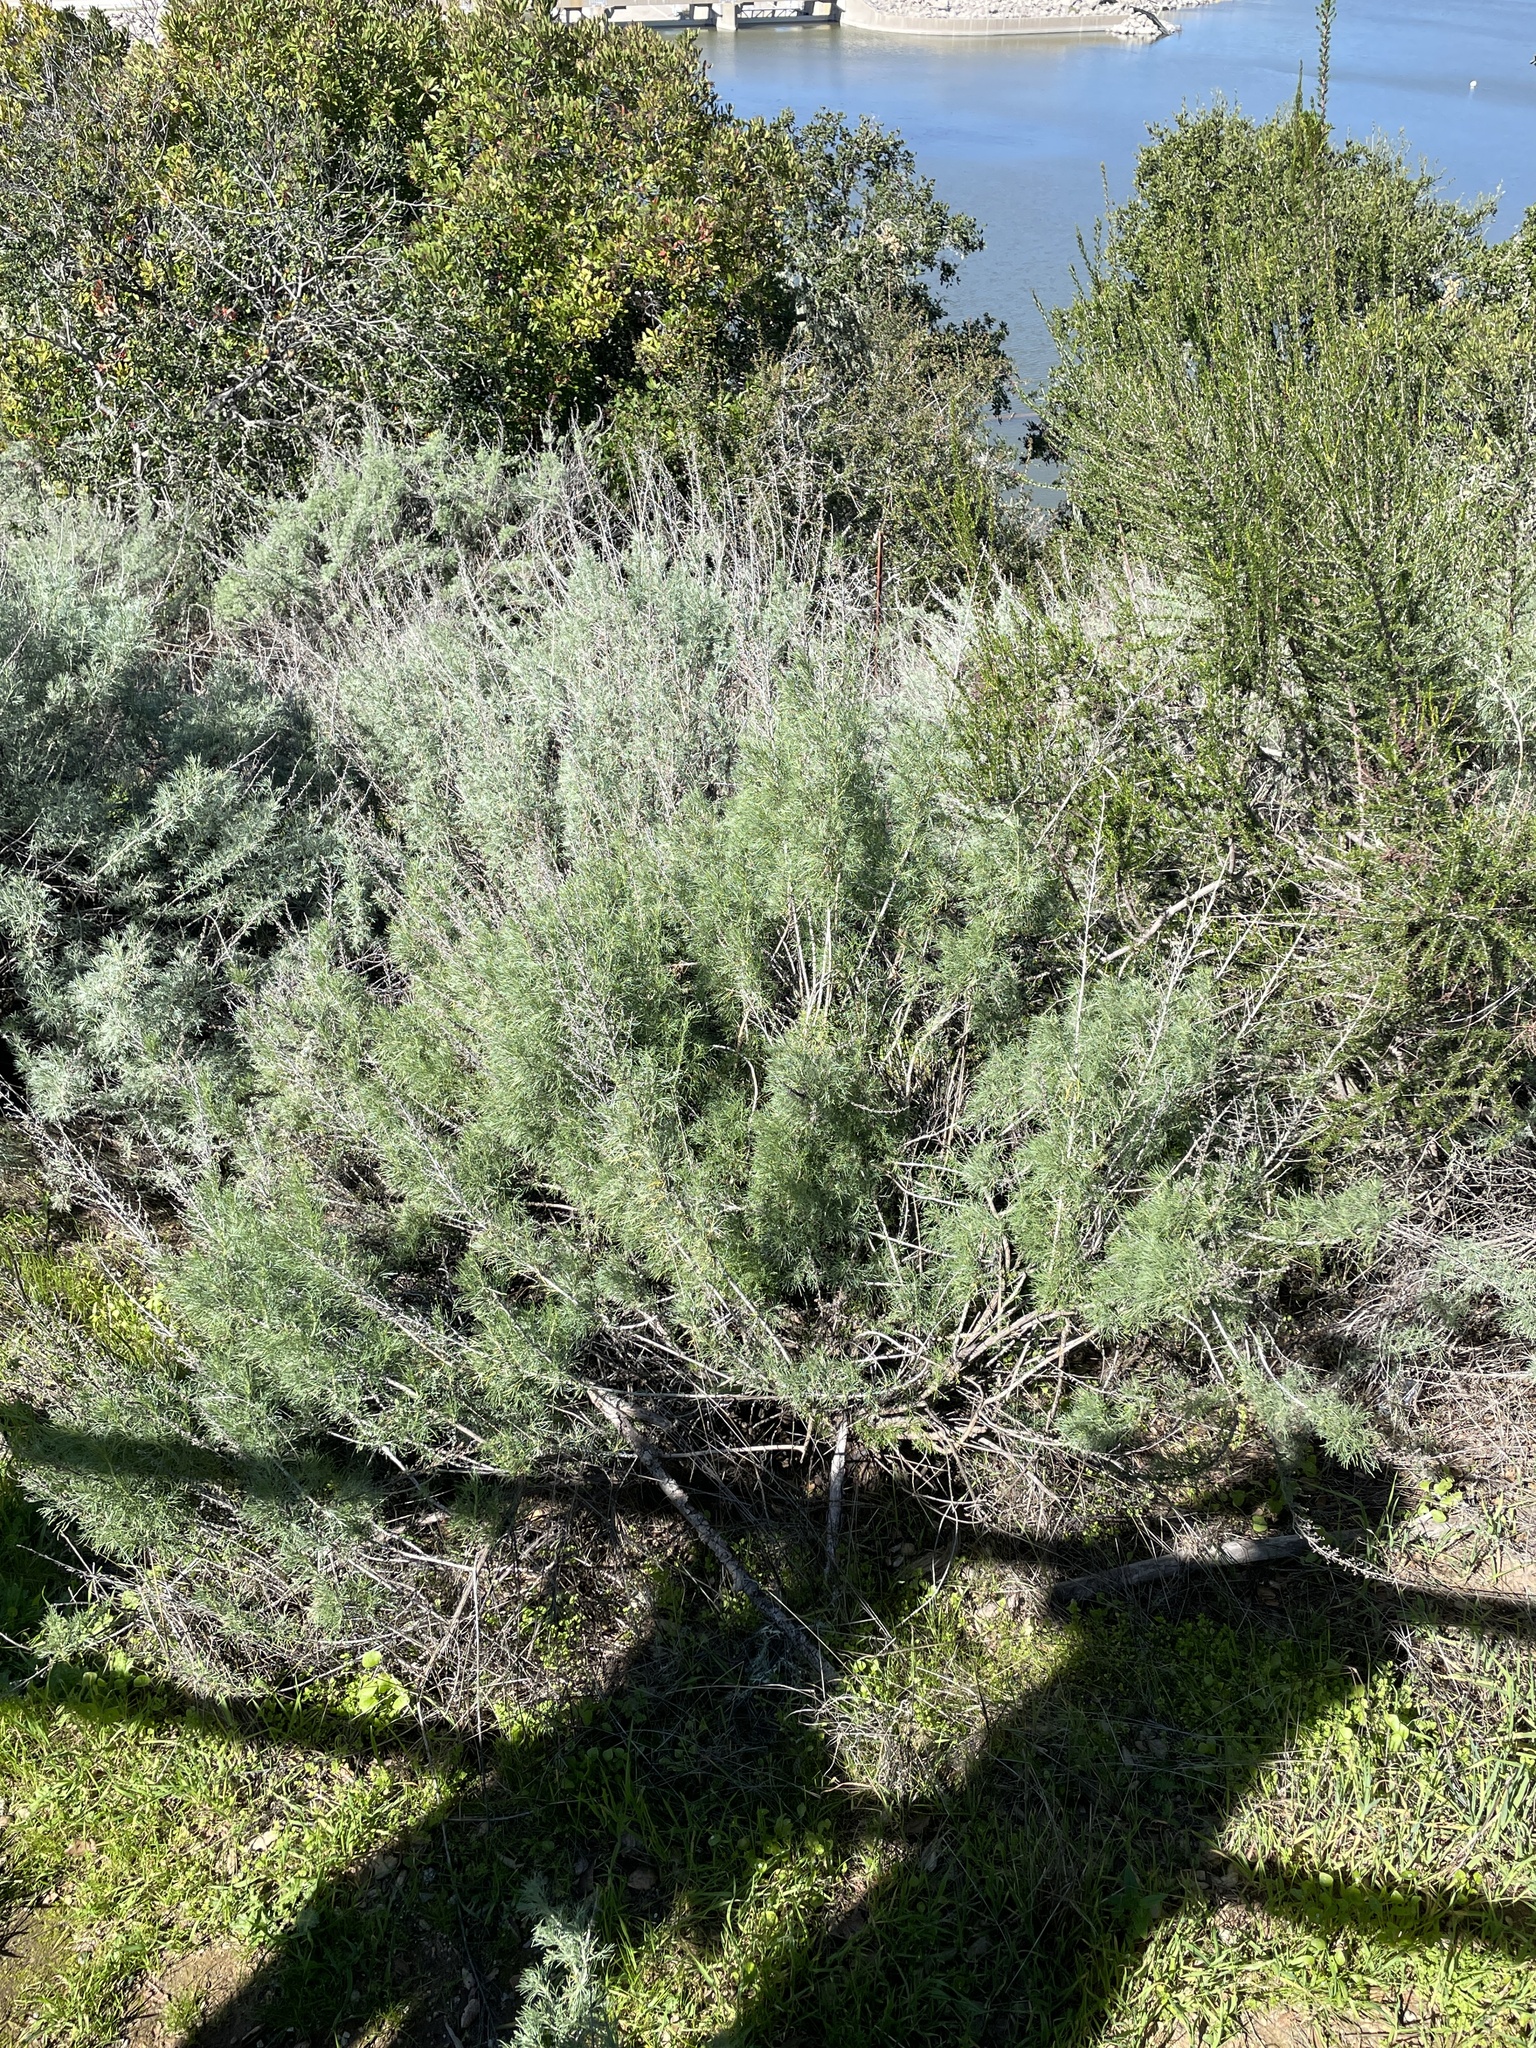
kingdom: Plantae
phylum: Tracheophyta
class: Magnoliopsida
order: Asterales
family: Asteraceae
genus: Artemisia
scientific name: Artemisia californica
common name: California sagebrush
